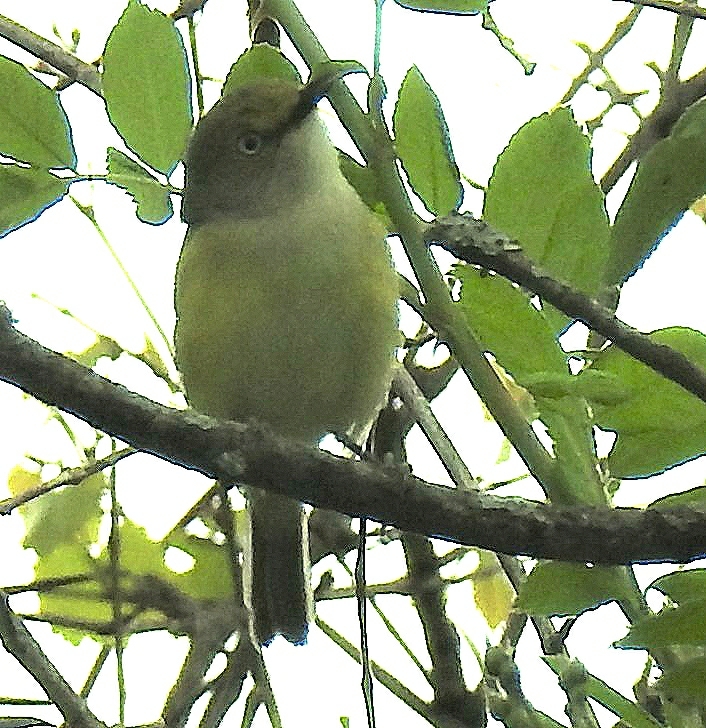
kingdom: Animalia
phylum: Chordata
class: Aves
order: Passeriformes
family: Vireonidae
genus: Vireo
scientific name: Vireo griseus
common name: White-eyed vireo
